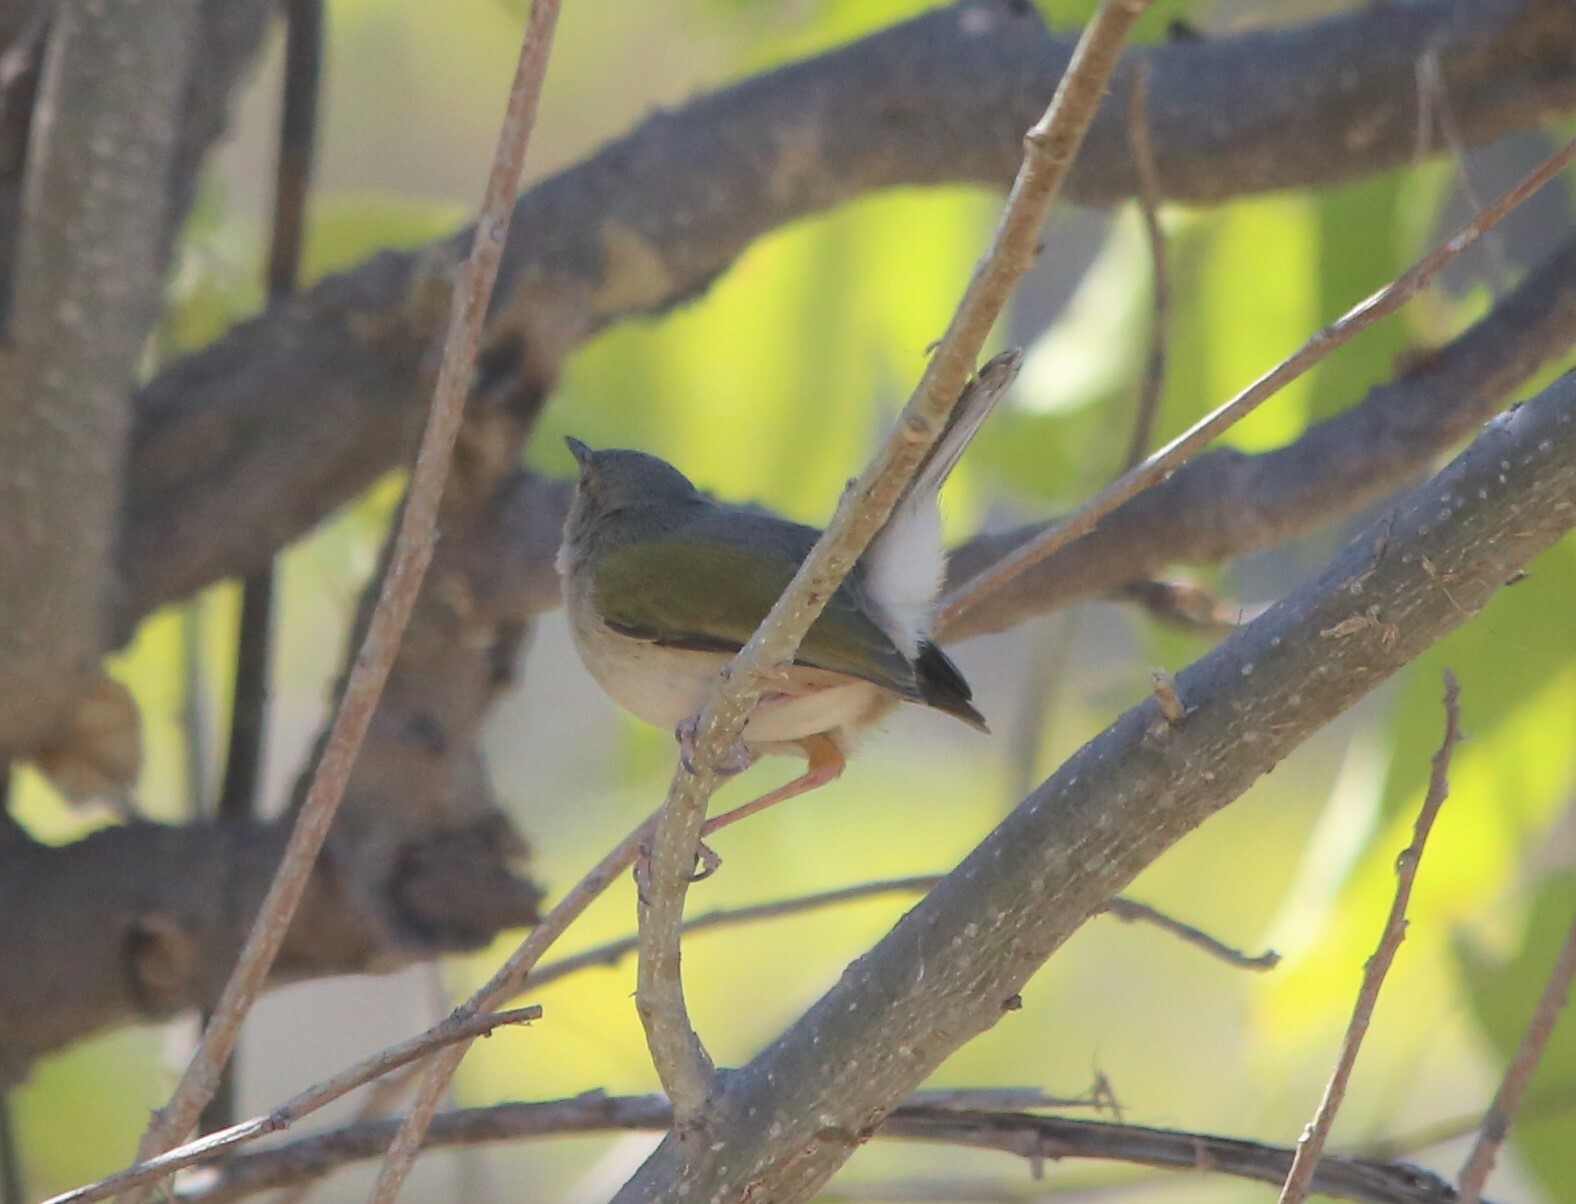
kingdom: Animalia
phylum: Chordata
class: Aves
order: Passeriformes
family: Cisticolidae
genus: Camaroptera
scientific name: Camaroptera brachyura
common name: Green-backed camaroptera
